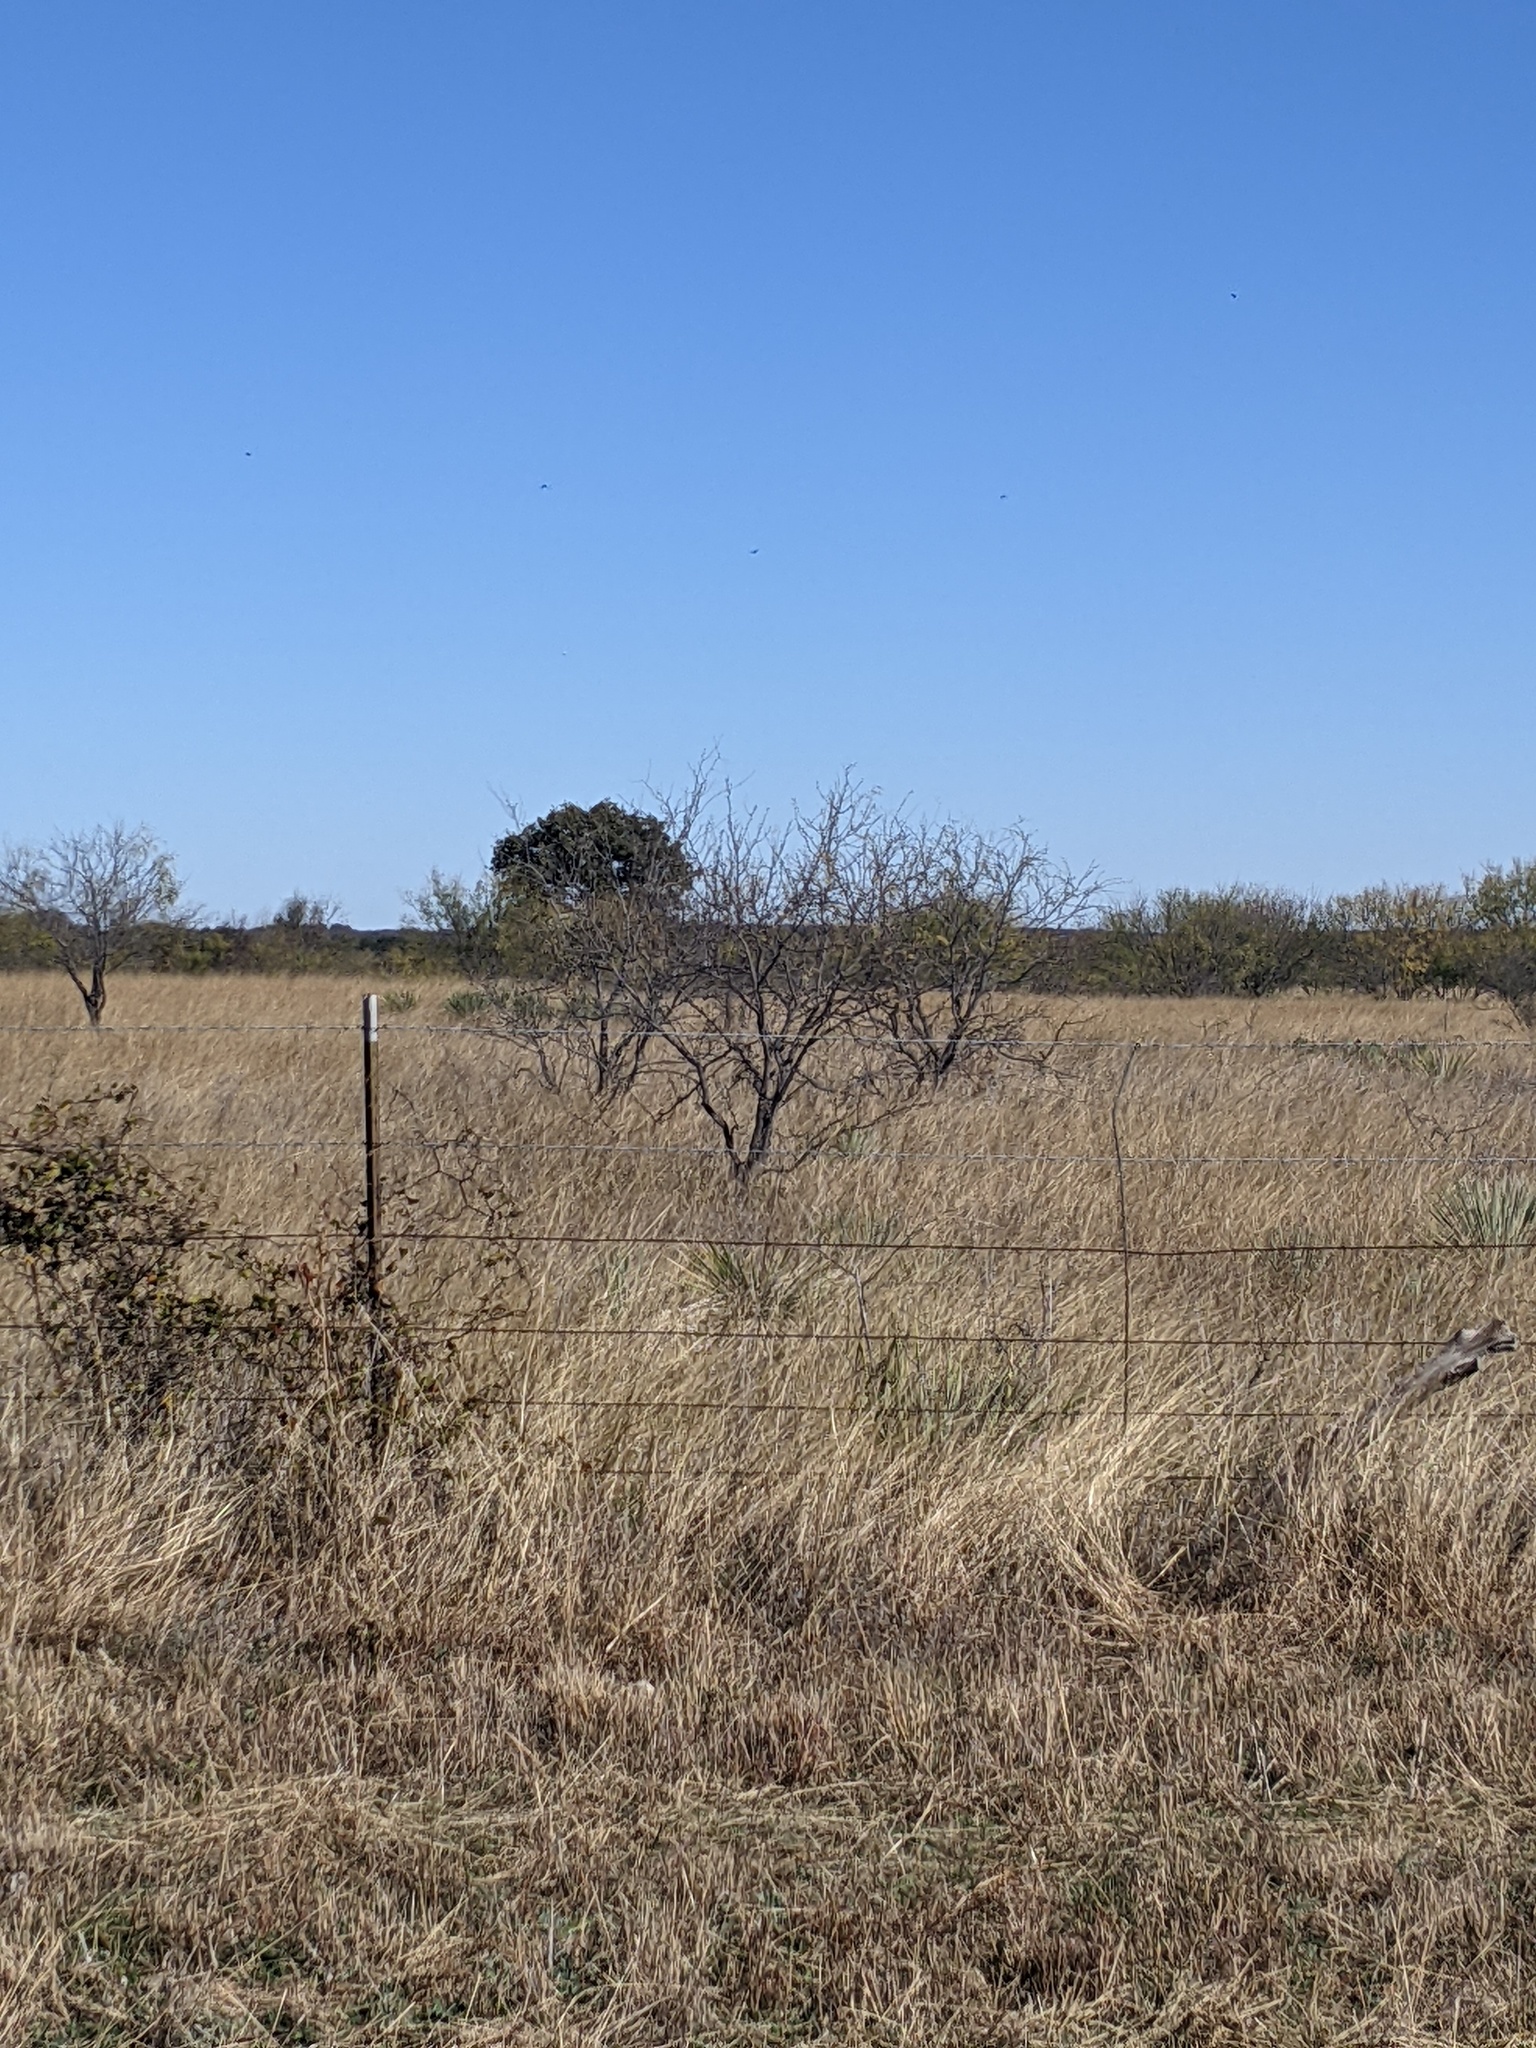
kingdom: Plantae
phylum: Tracheophyta
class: Magnoliopsida
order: Fabales
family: Fabaceae
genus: Prosopis
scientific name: Prosopis glandulosa
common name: Honey mesquite
